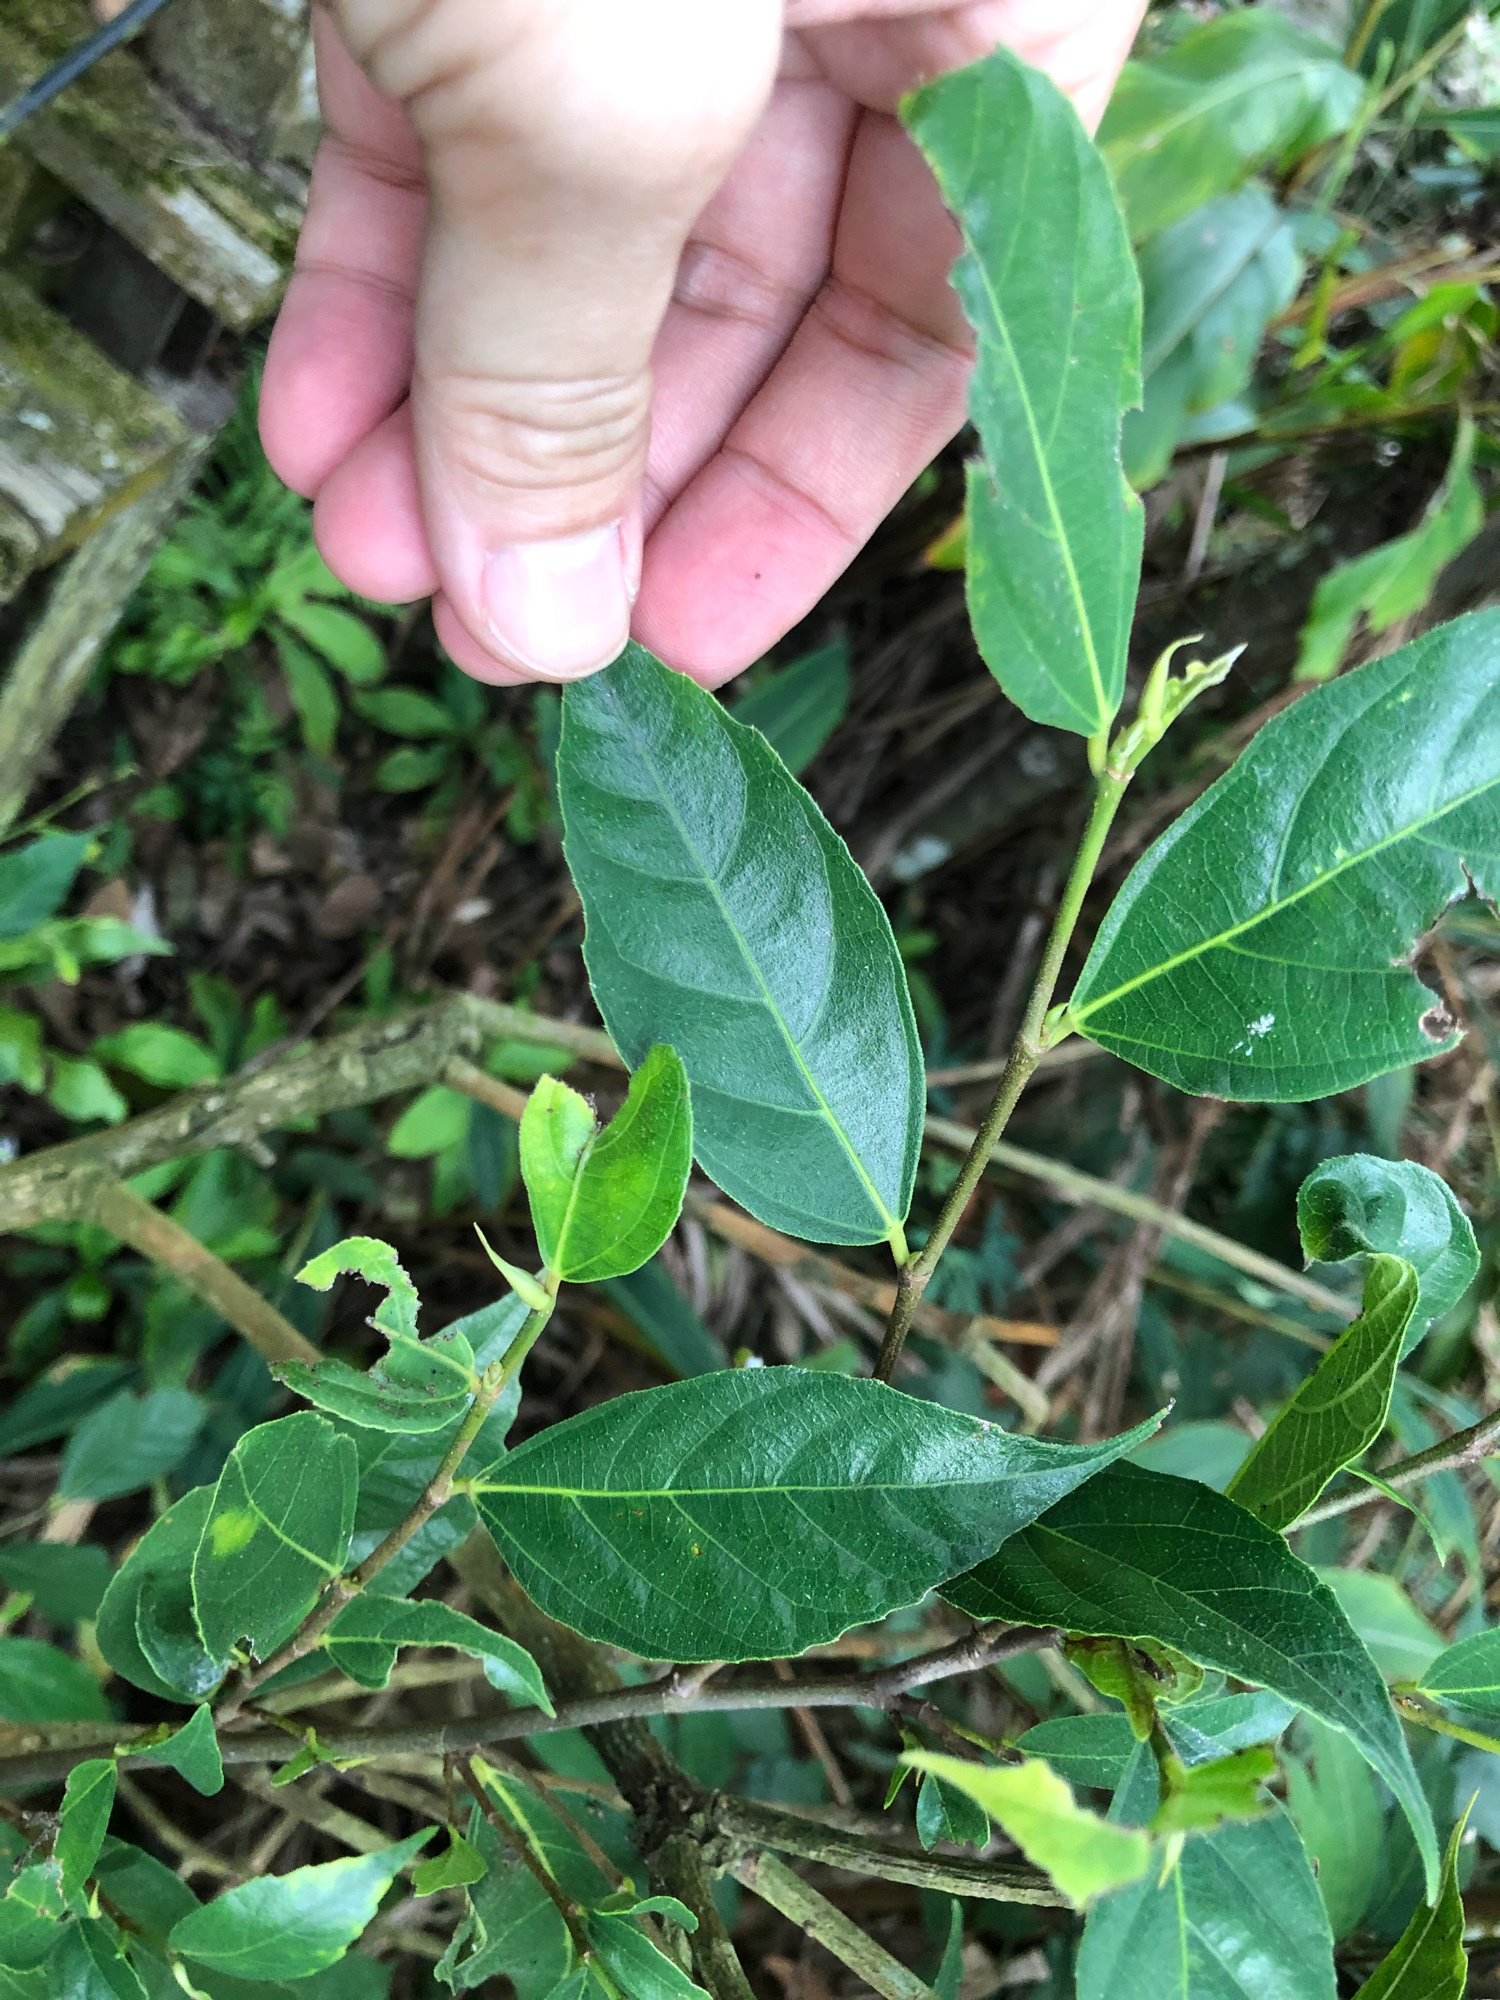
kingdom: Plantae
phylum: Tracheophyta
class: Magnoliopsida
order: Rosales
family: Moraceae
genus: Ficus
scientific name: Ficus ampelos
